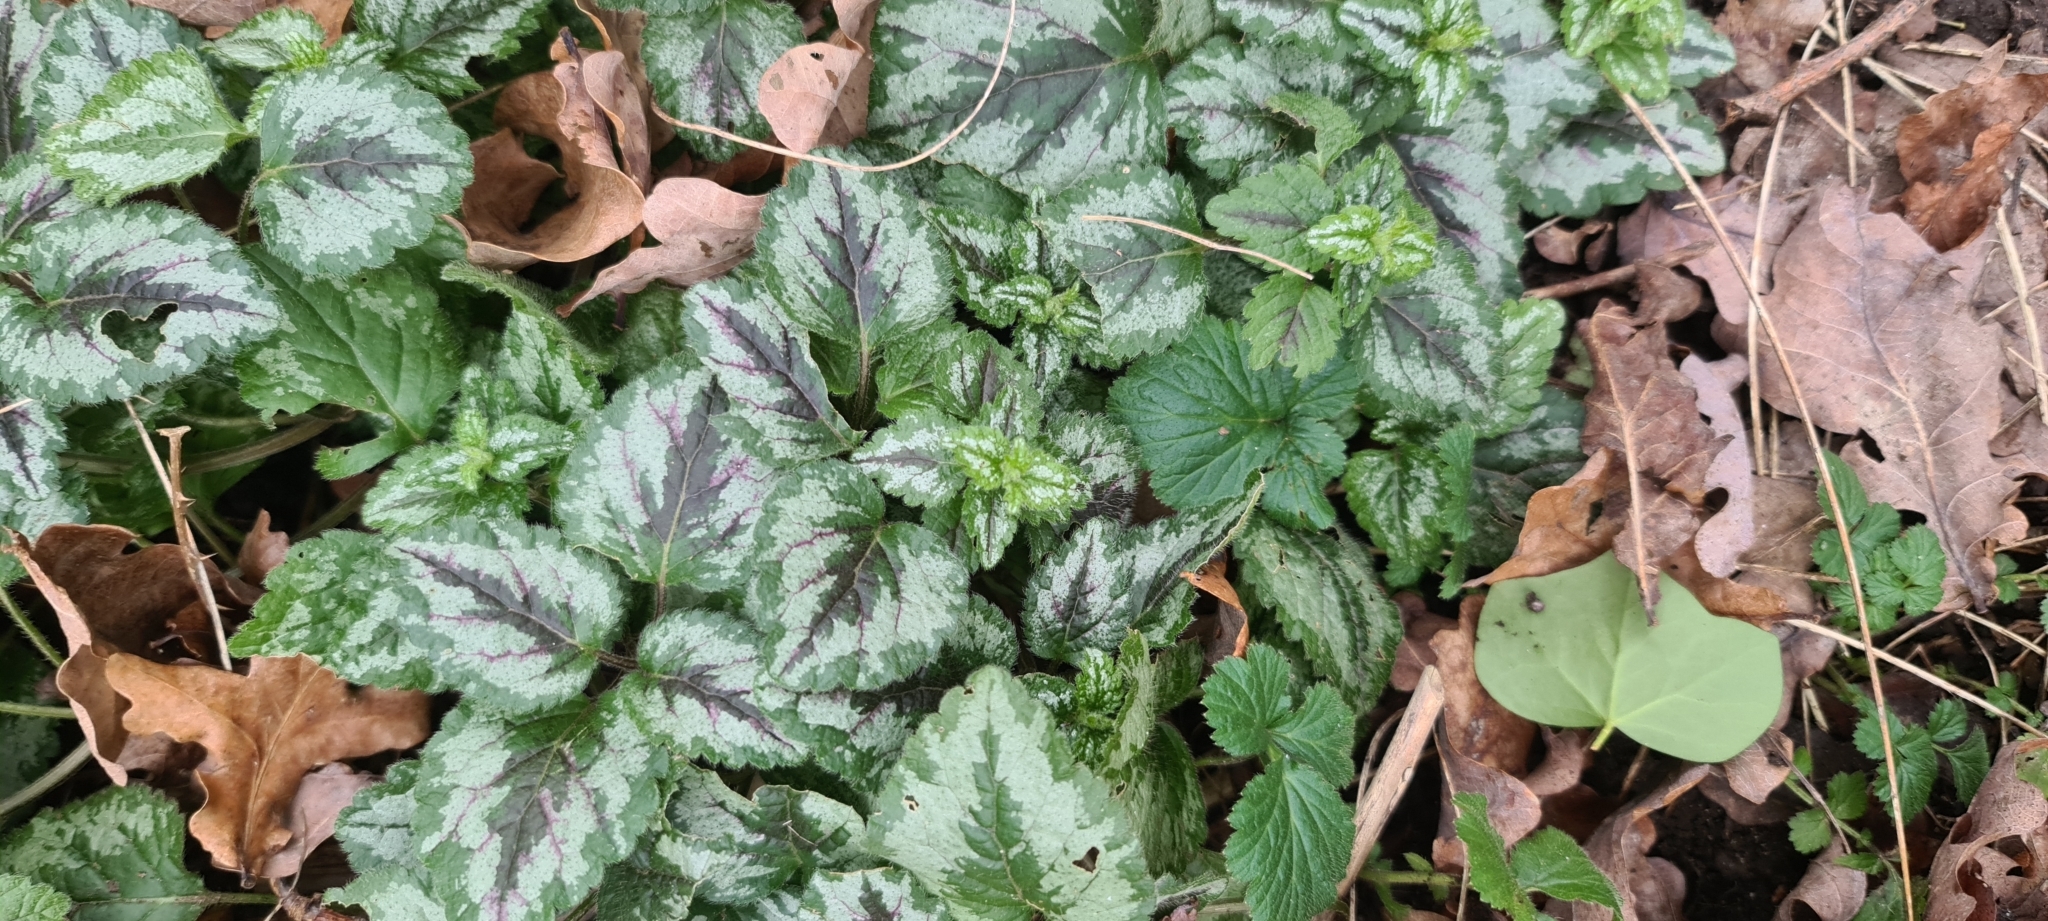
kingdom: Plantae
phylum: Tracheophyta
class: Magnoliopsida
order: Lamiales
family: Lamiaceae
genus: Lamium
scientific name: Lamium galeobdolon
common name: Yellow archangel
